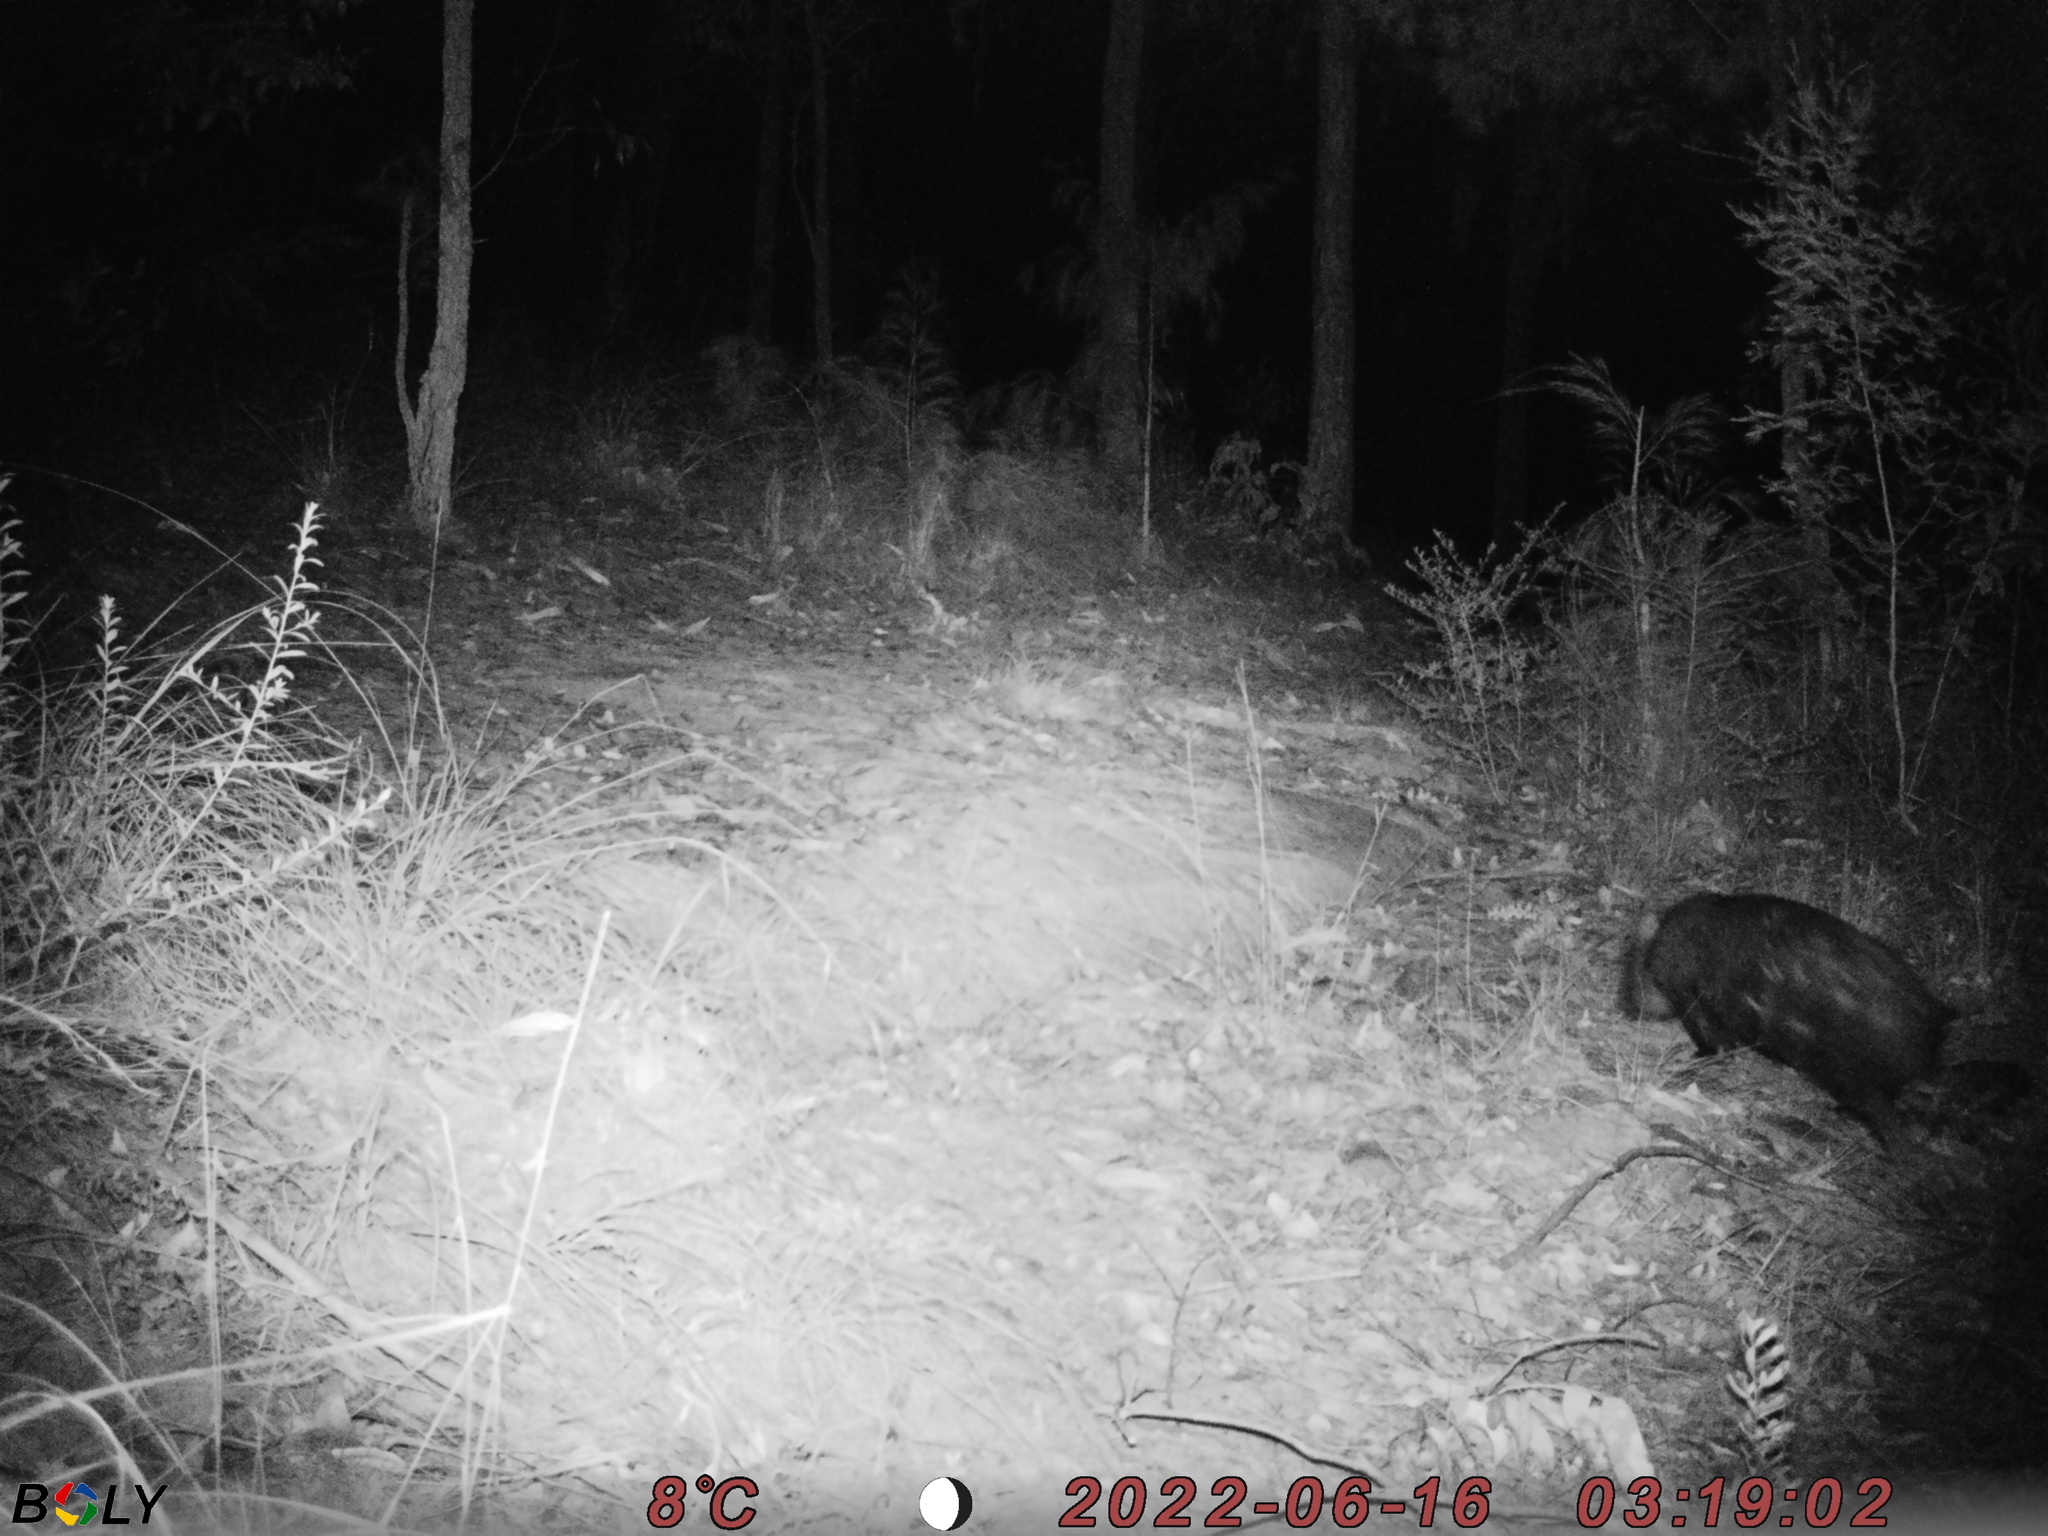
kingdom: Animalia
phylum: Chordata
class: Mammalia
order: Diprotodontia
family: Vombatidae
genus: Vombatus
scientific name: Vombatus ursinus
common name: Common wombat
